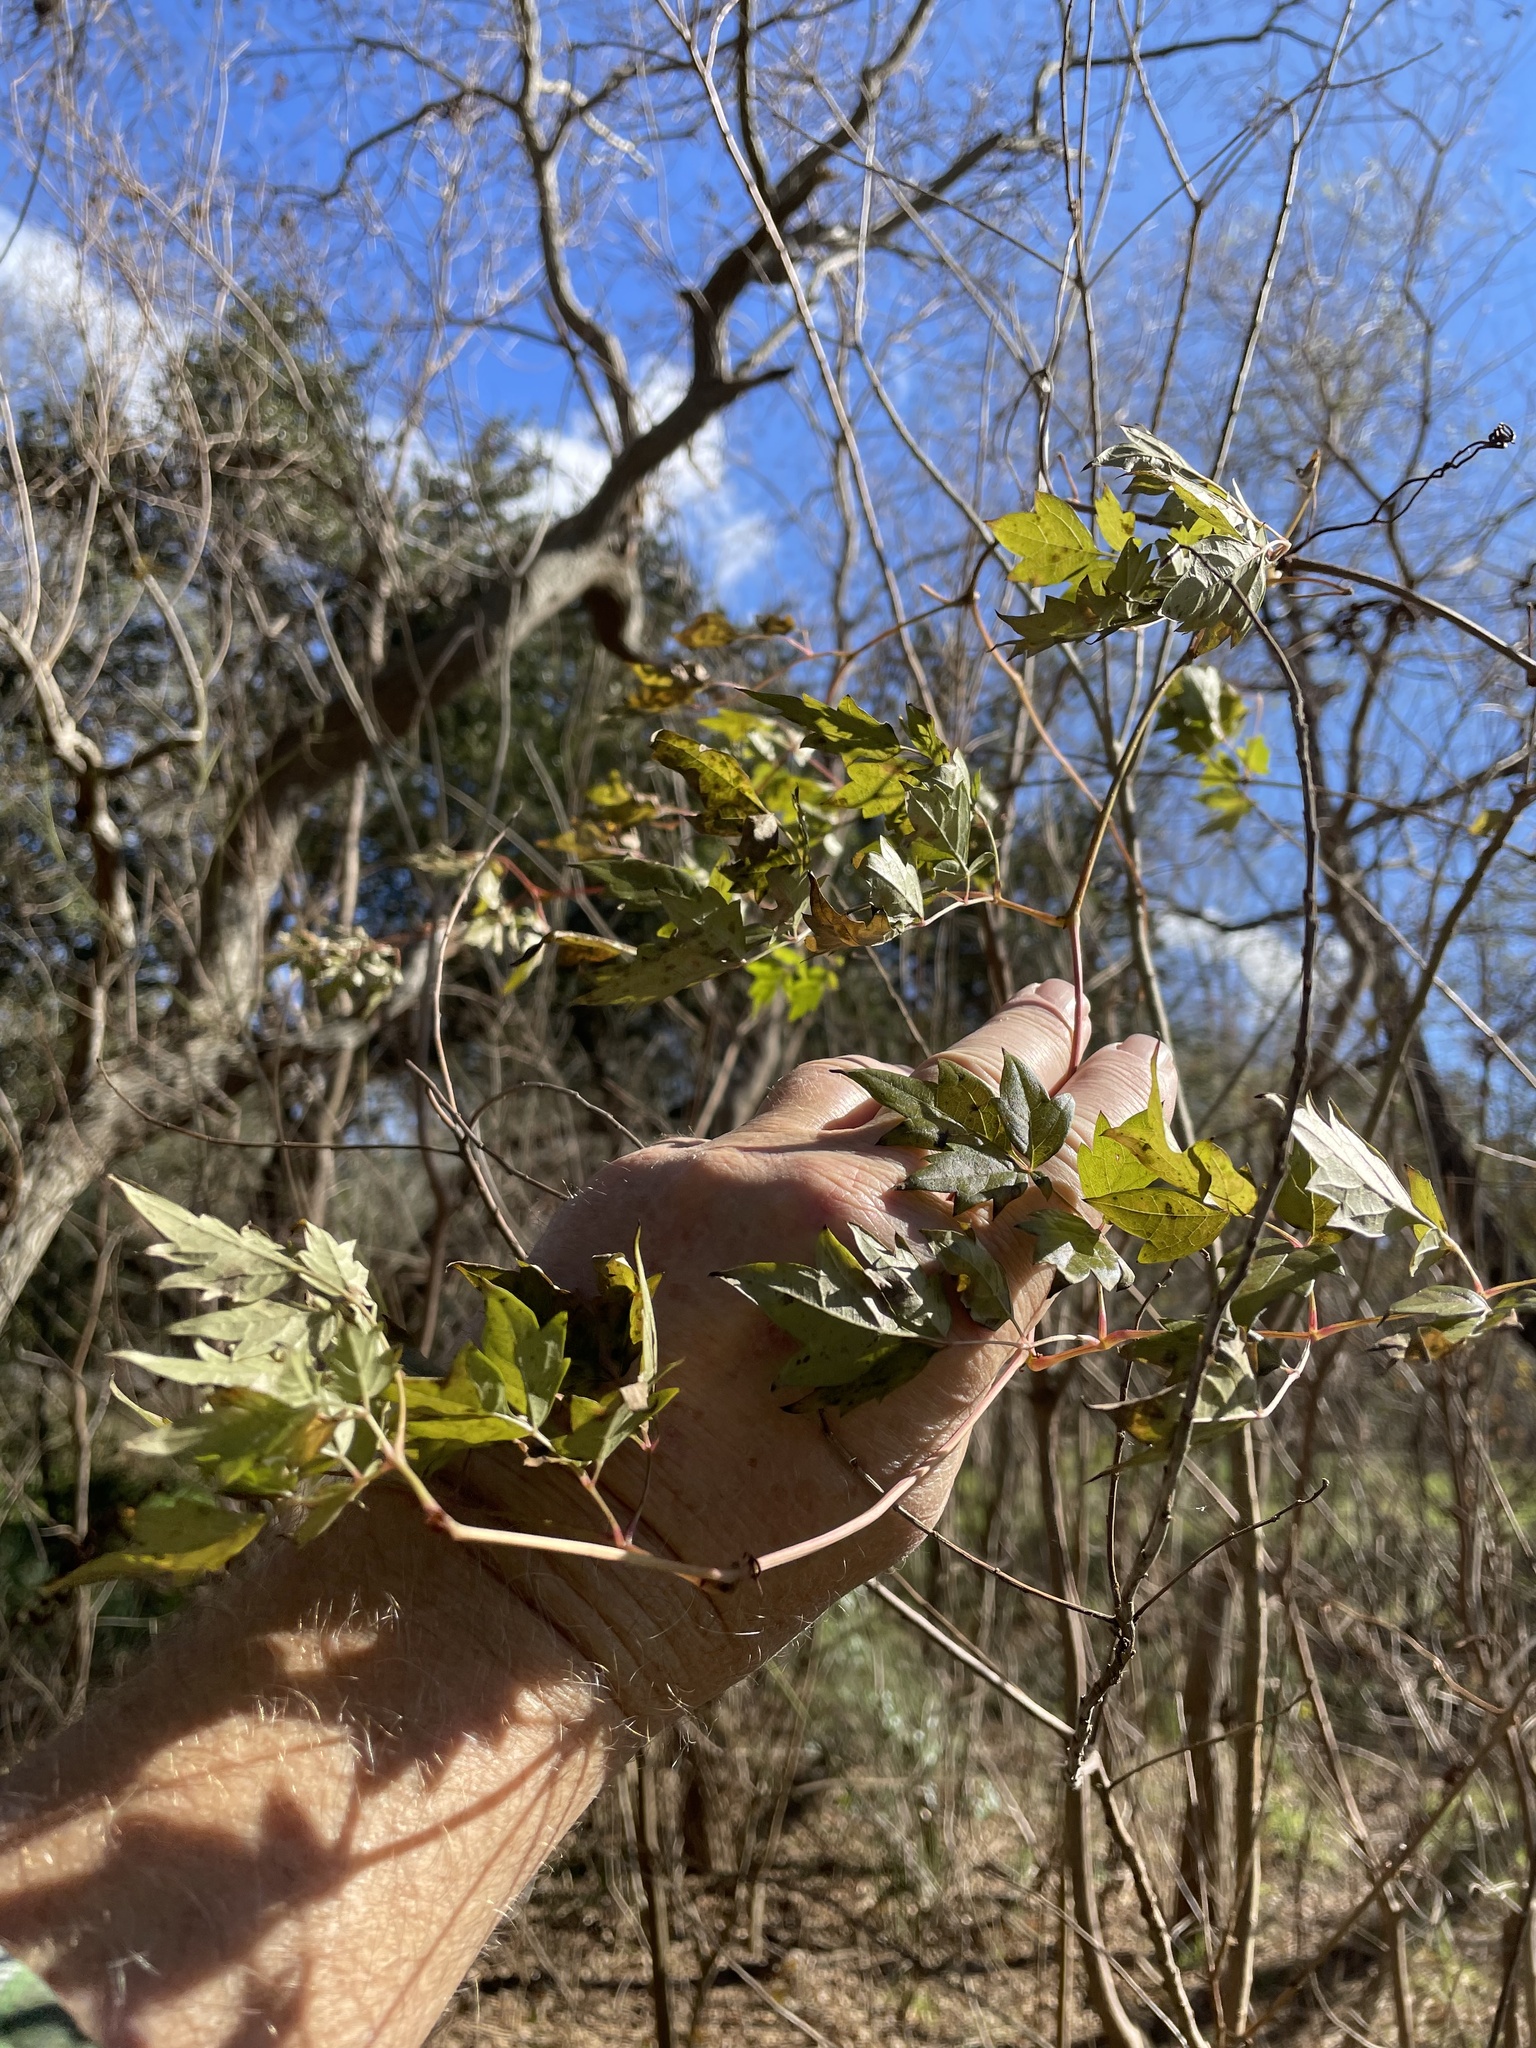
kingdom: Plantae
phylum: Tracheophyta
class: Magnoliopsida
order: Vitales
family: Vitaceae
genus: Nekemias
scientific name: Nekemias arborea
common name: Peppervine
